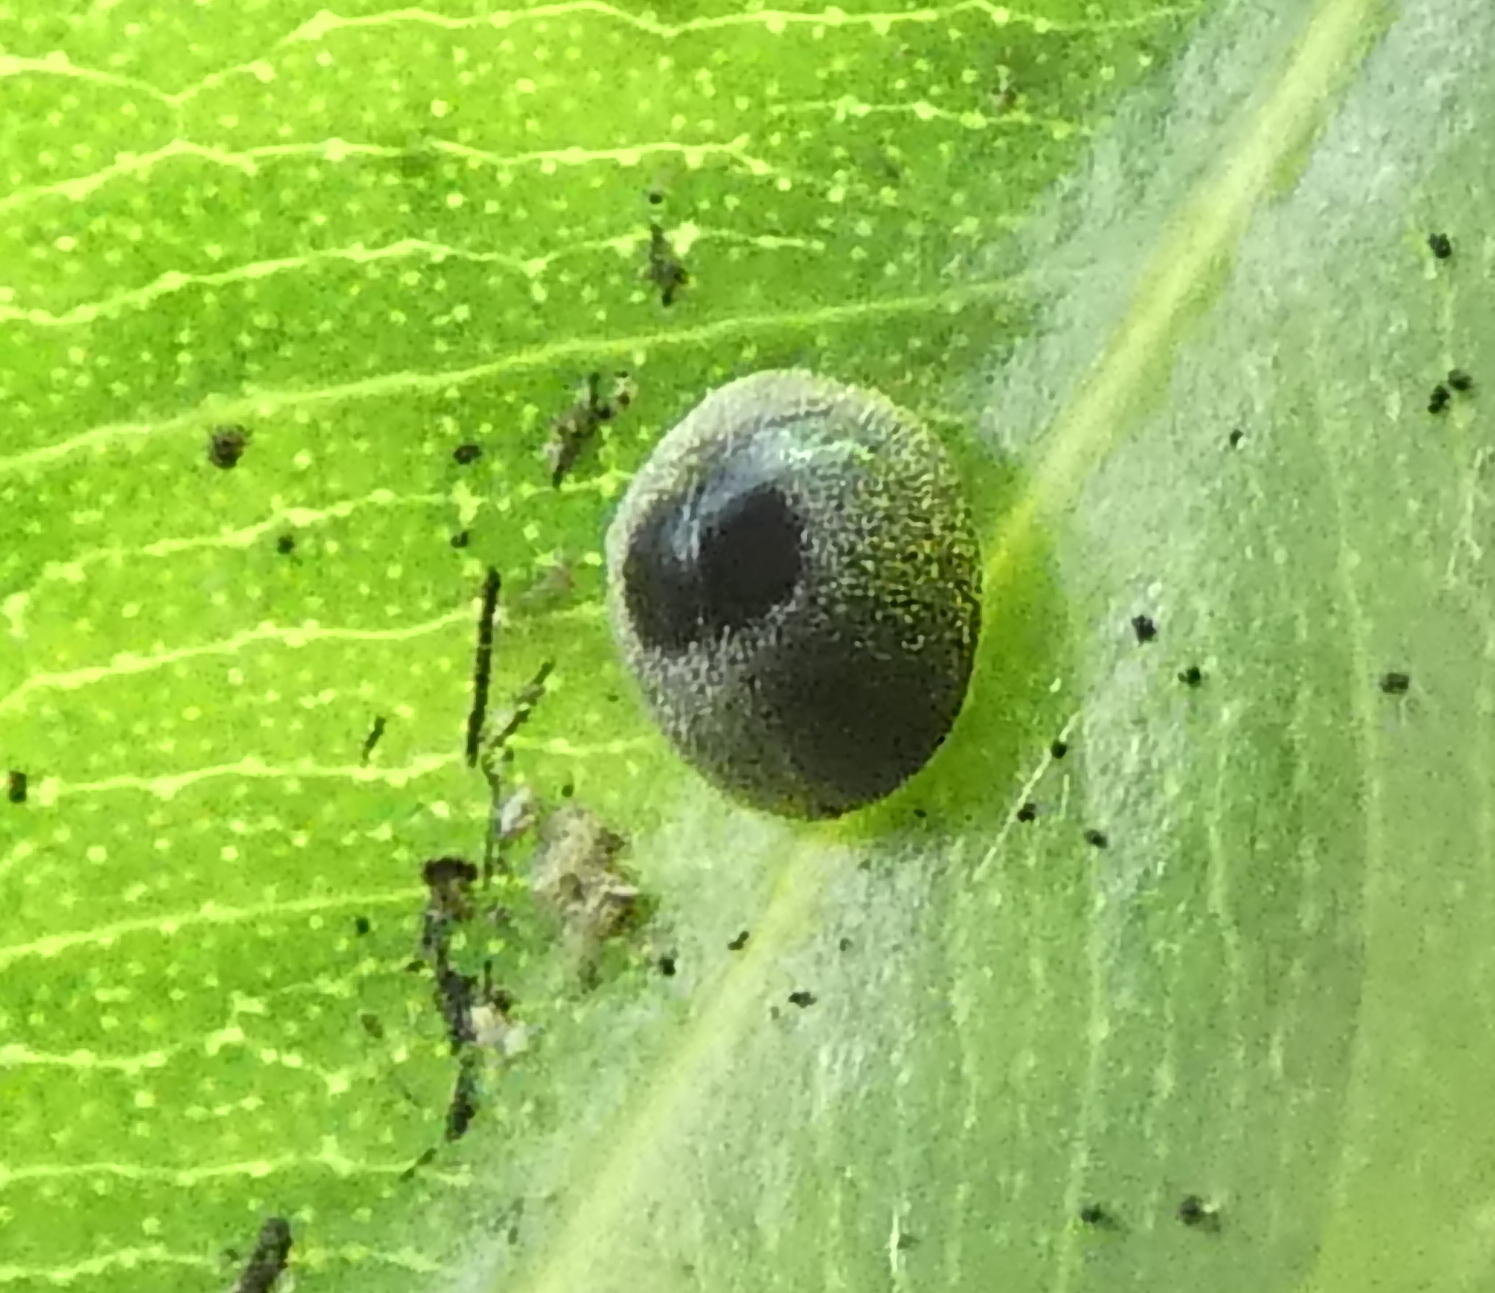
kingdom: Animalia
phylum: Arthropoda
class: Insecta
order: Coleoptera
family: Coccinellidae
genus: Azya
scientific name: Azya
